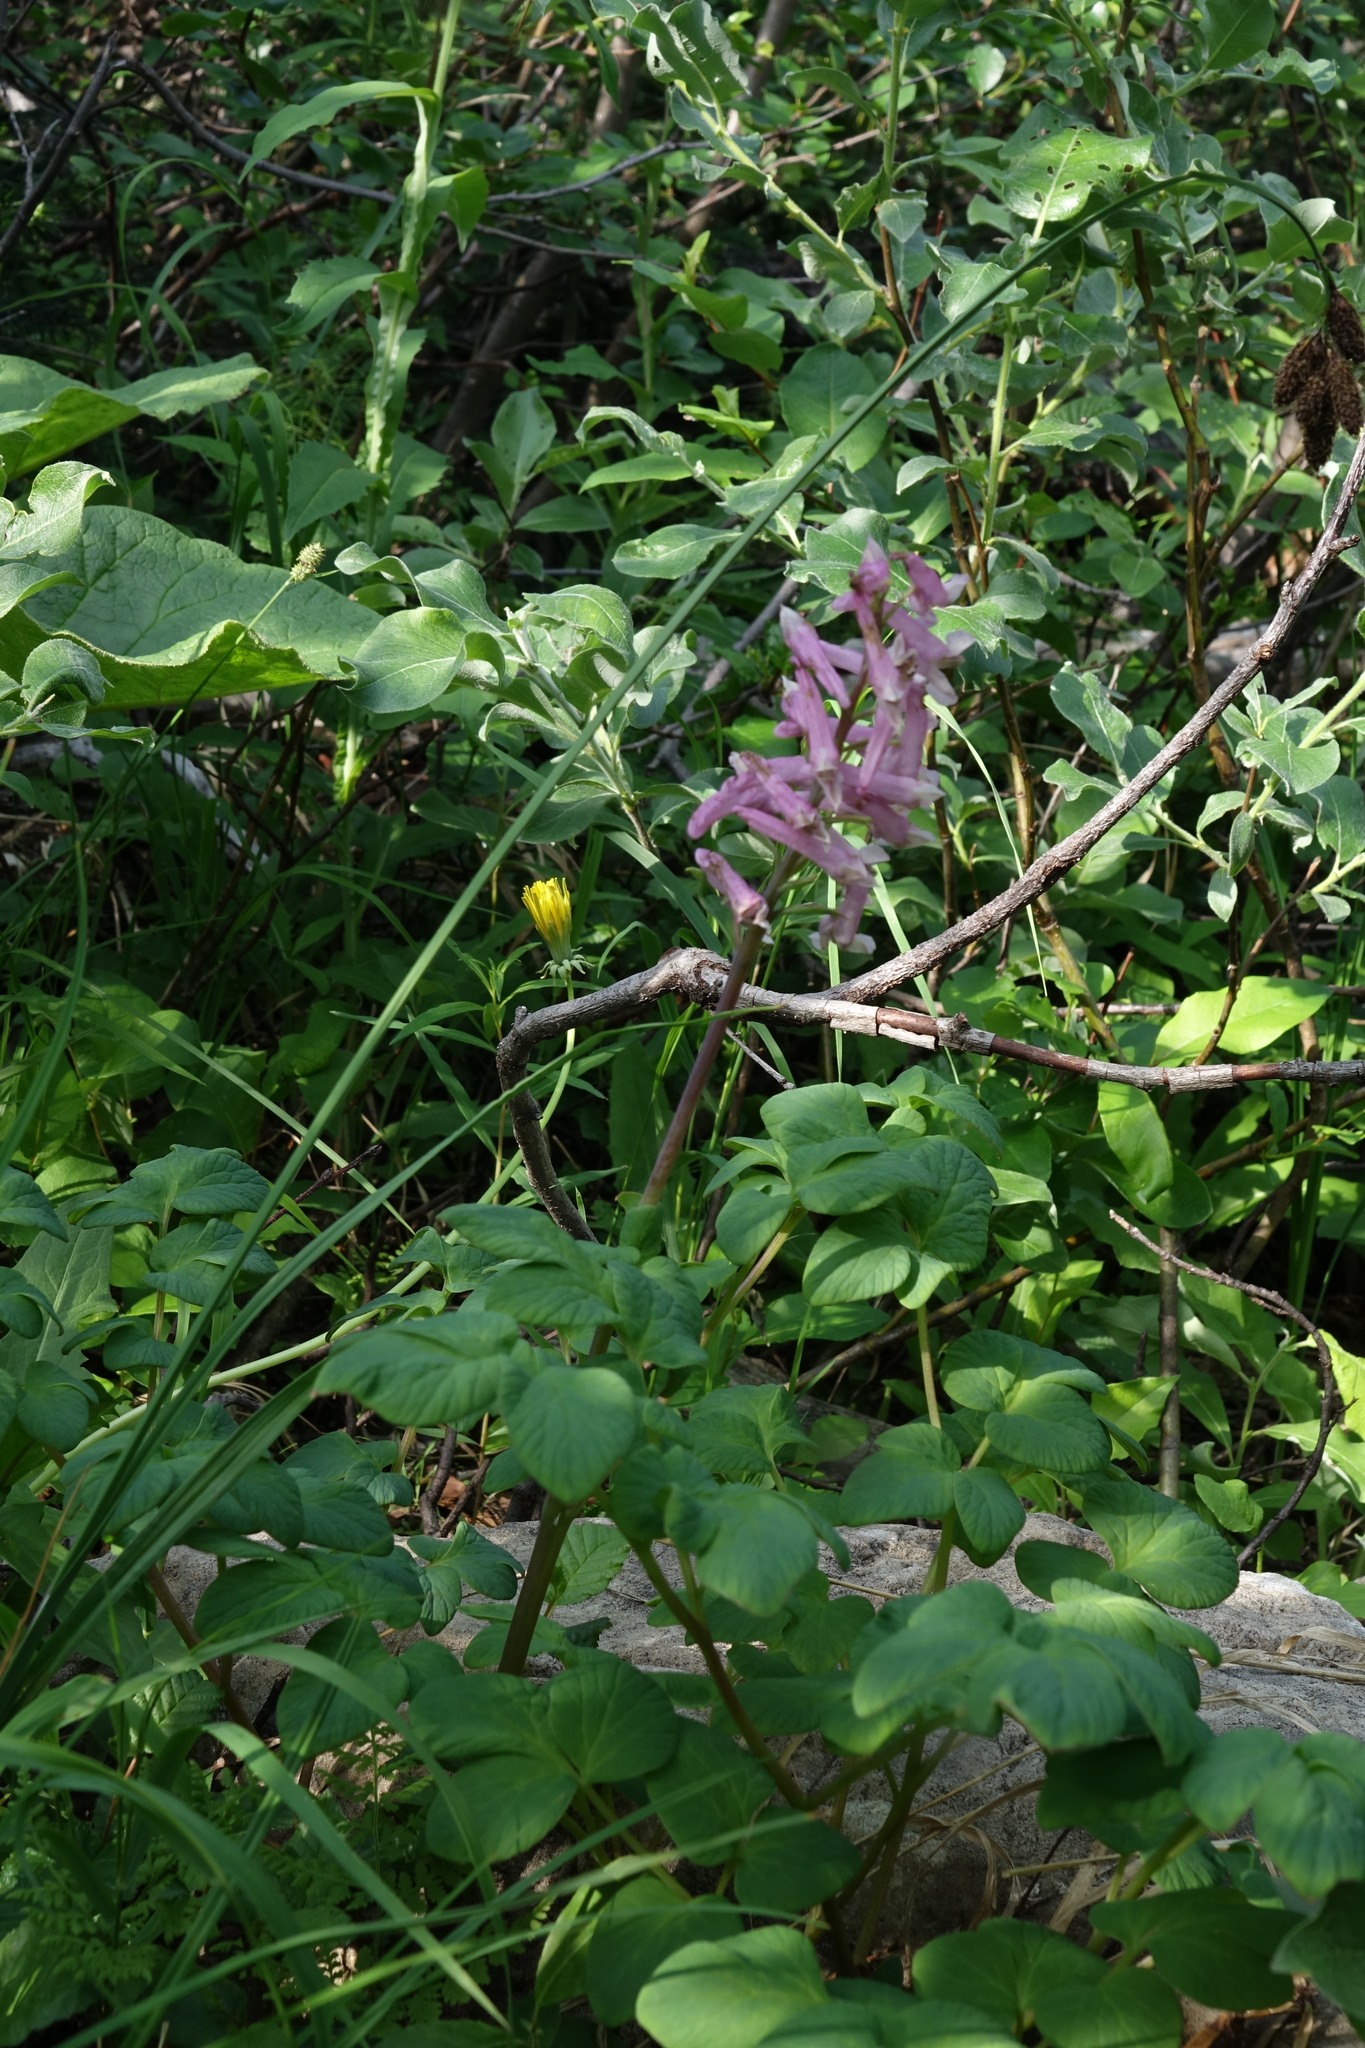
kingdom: Plantae
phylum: Tracheophyta
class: Magnoliopsida
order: Ranunculales
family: Papaveraceae
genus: Corydalis
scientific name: Corydalis paeoniifolia
